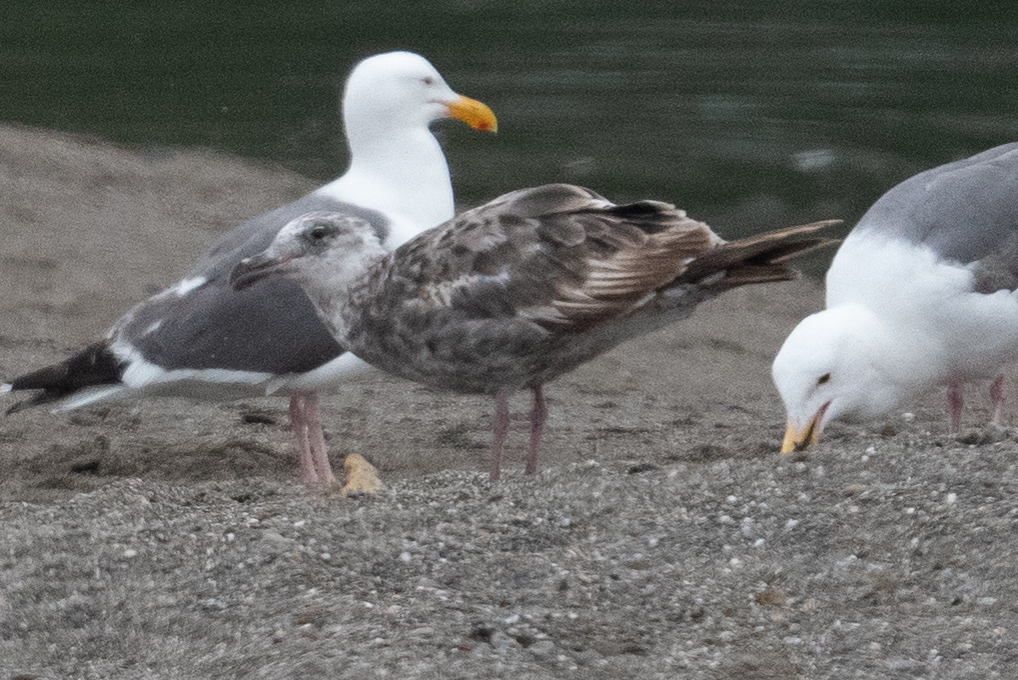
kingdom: Animalia
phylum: Chordata
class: Aves
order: Charadriiformes
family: Laridae
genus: Larus
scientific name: Larus occidentalis
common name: Western gull
